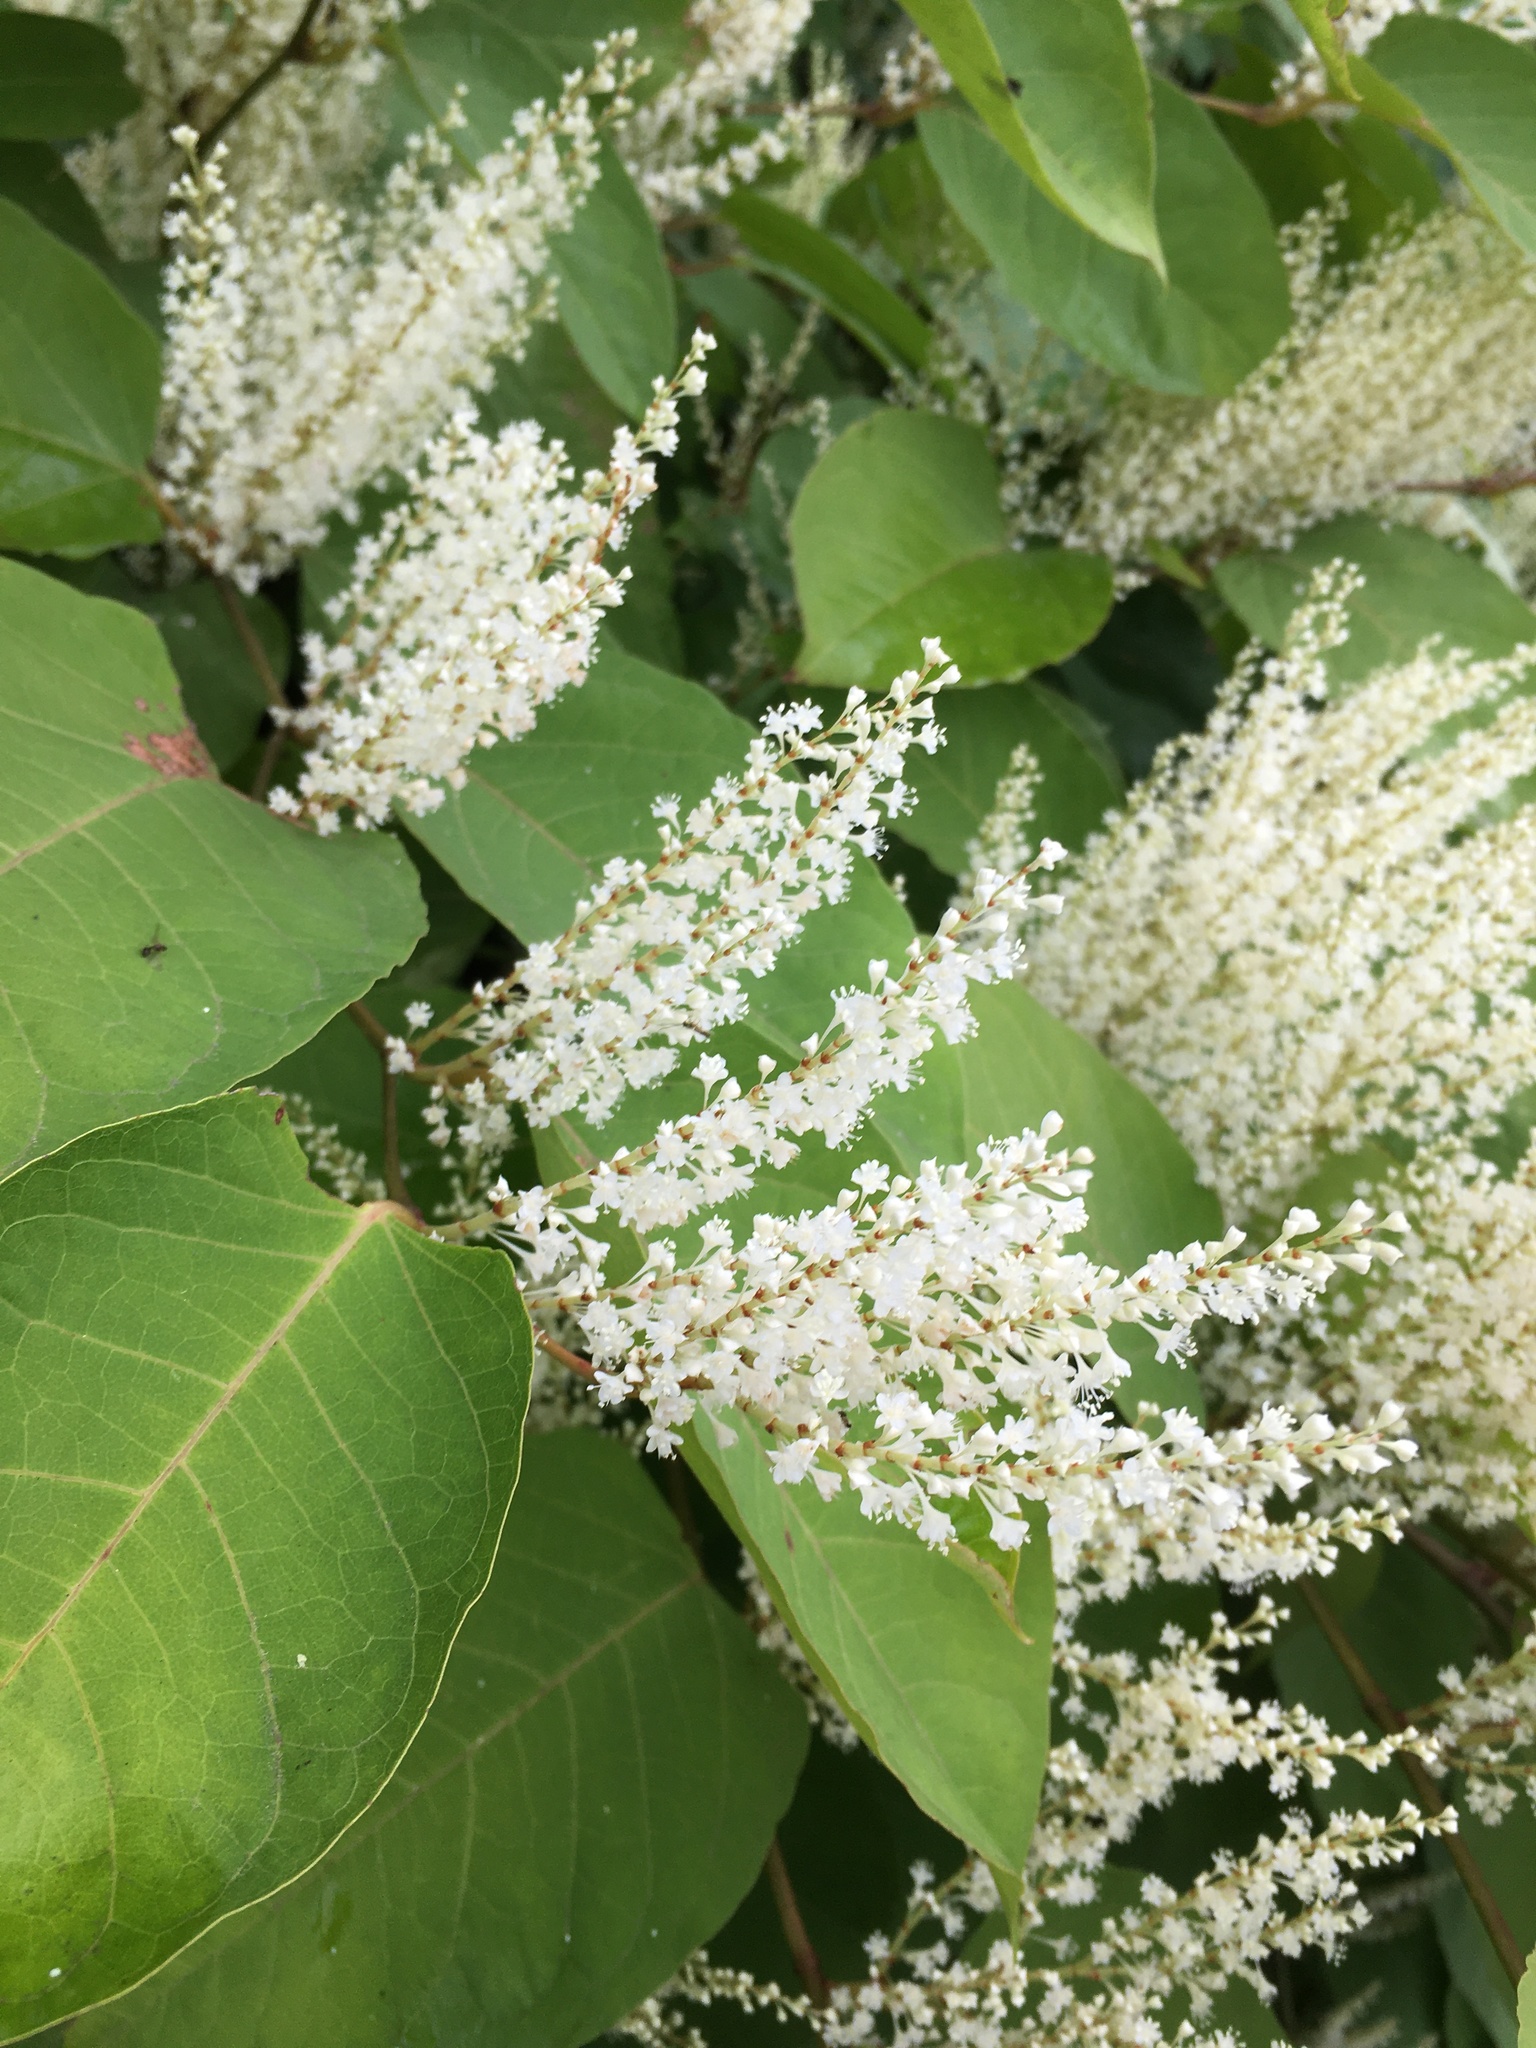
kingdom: Plantae
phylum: Tracheophyta
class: Magnoliopsida
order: Caryophyllales
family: Polygonaceae
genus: Reynoutria
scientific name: Reynoutria japonica
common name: Japanese knotweed
